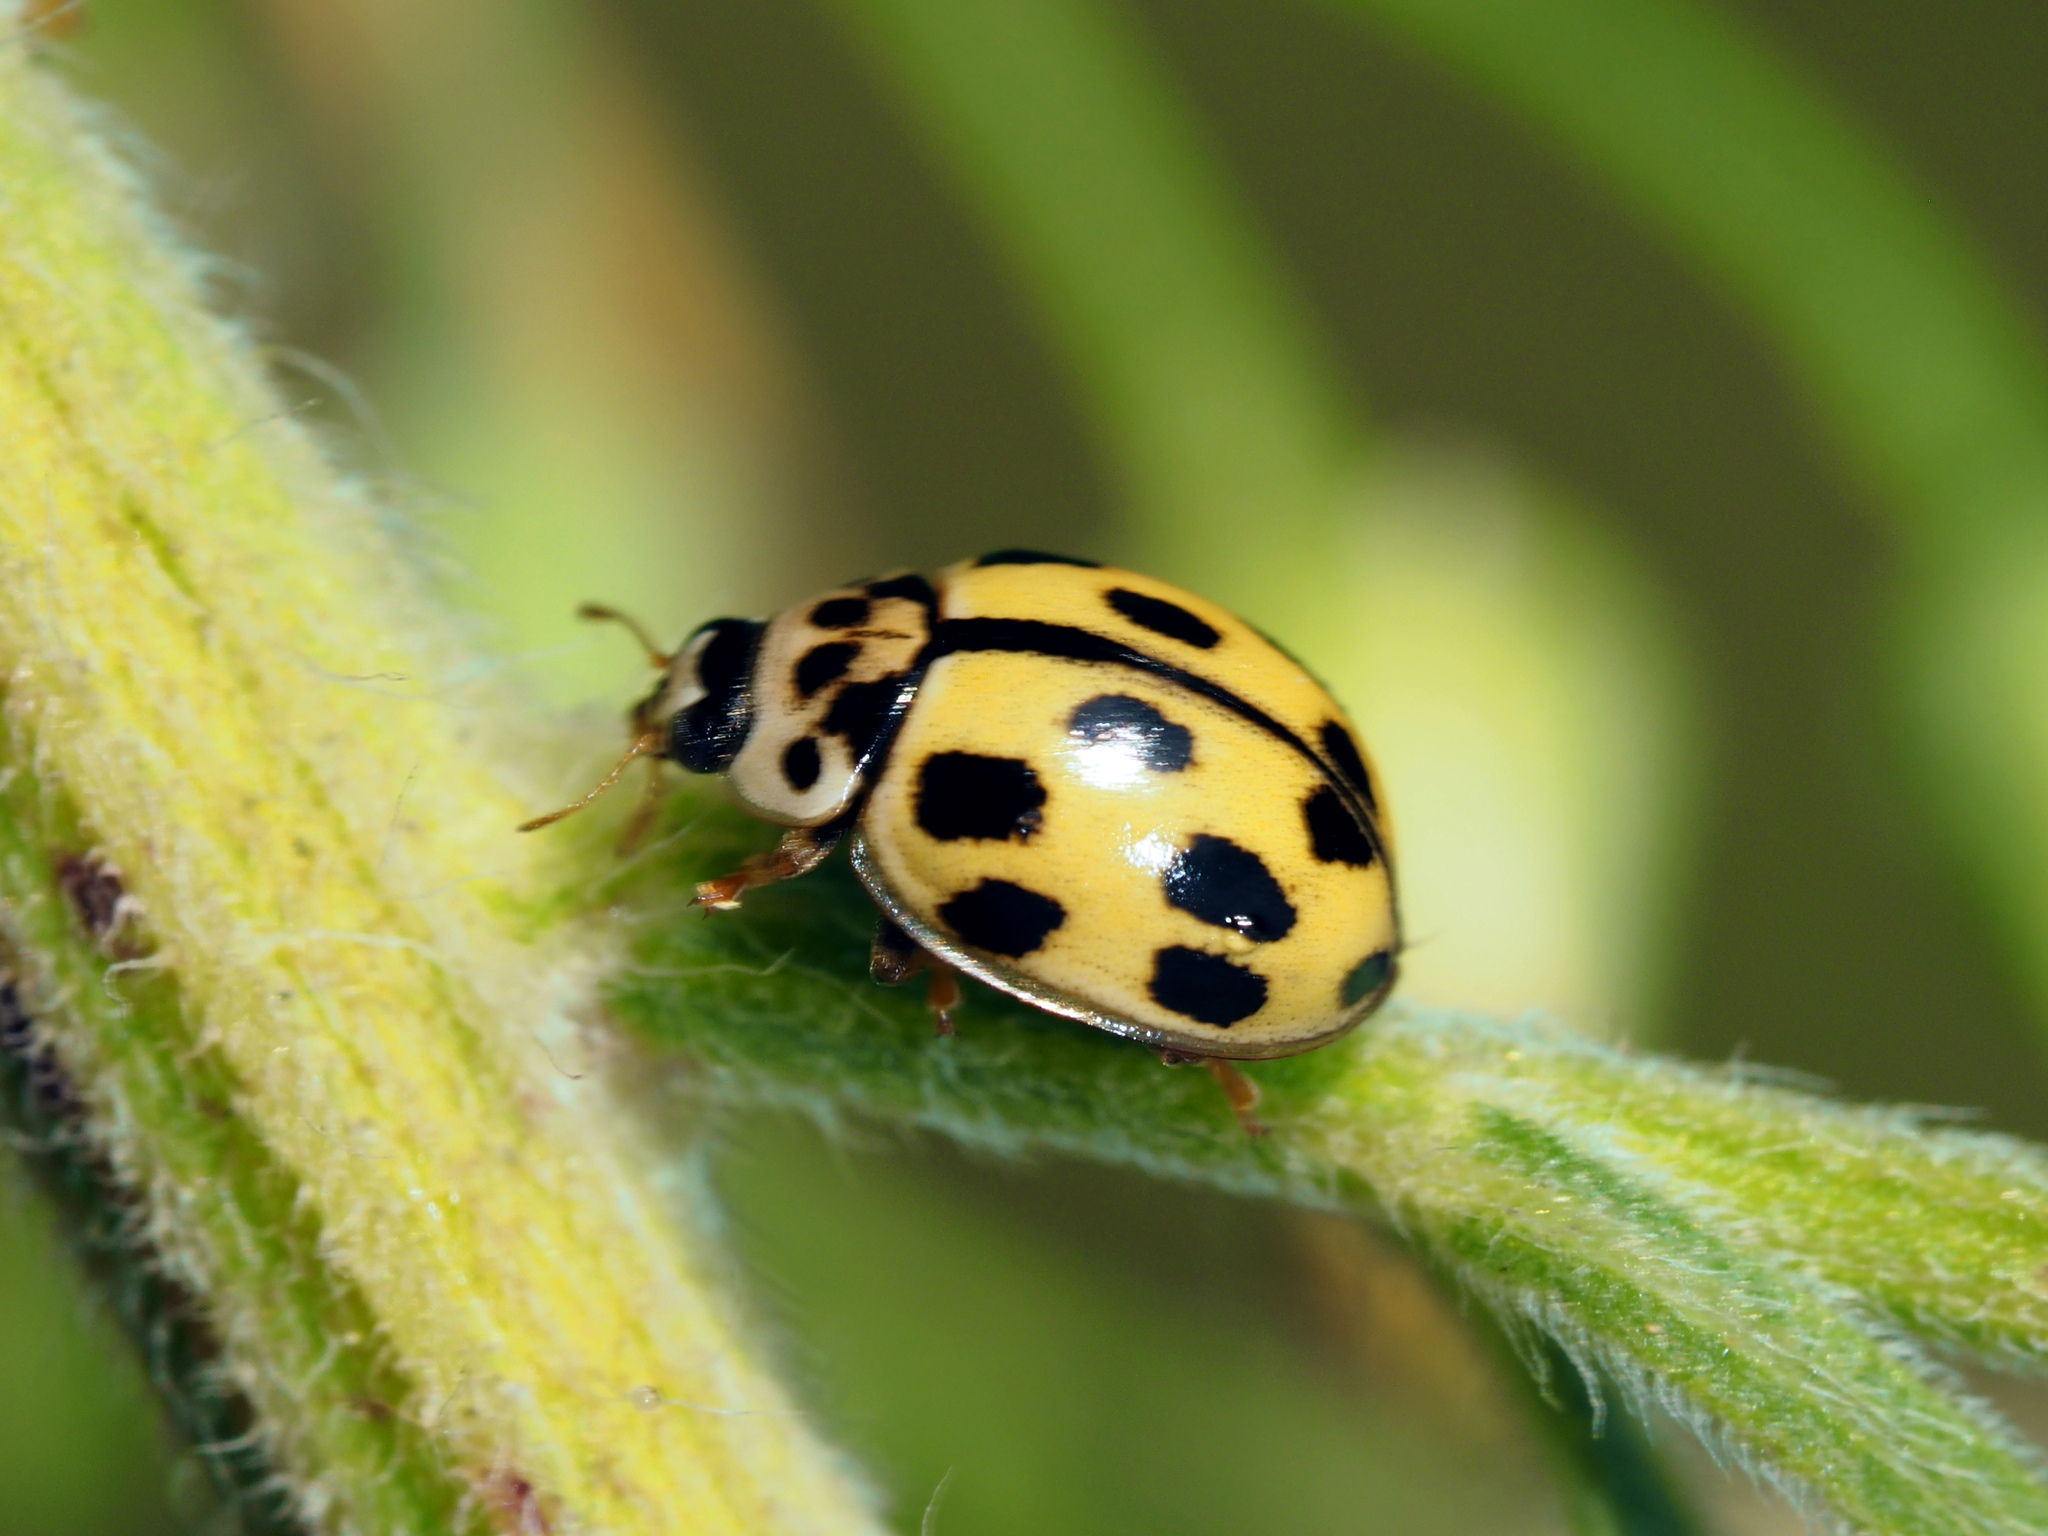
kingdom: Animalia
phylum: Arthropoda
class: Insecta
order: Coleoptera
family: Coccinellidae
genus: Propylaea
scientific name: Propylaea quatuordecimpunctata
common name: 14-spotted ladybird beetle
